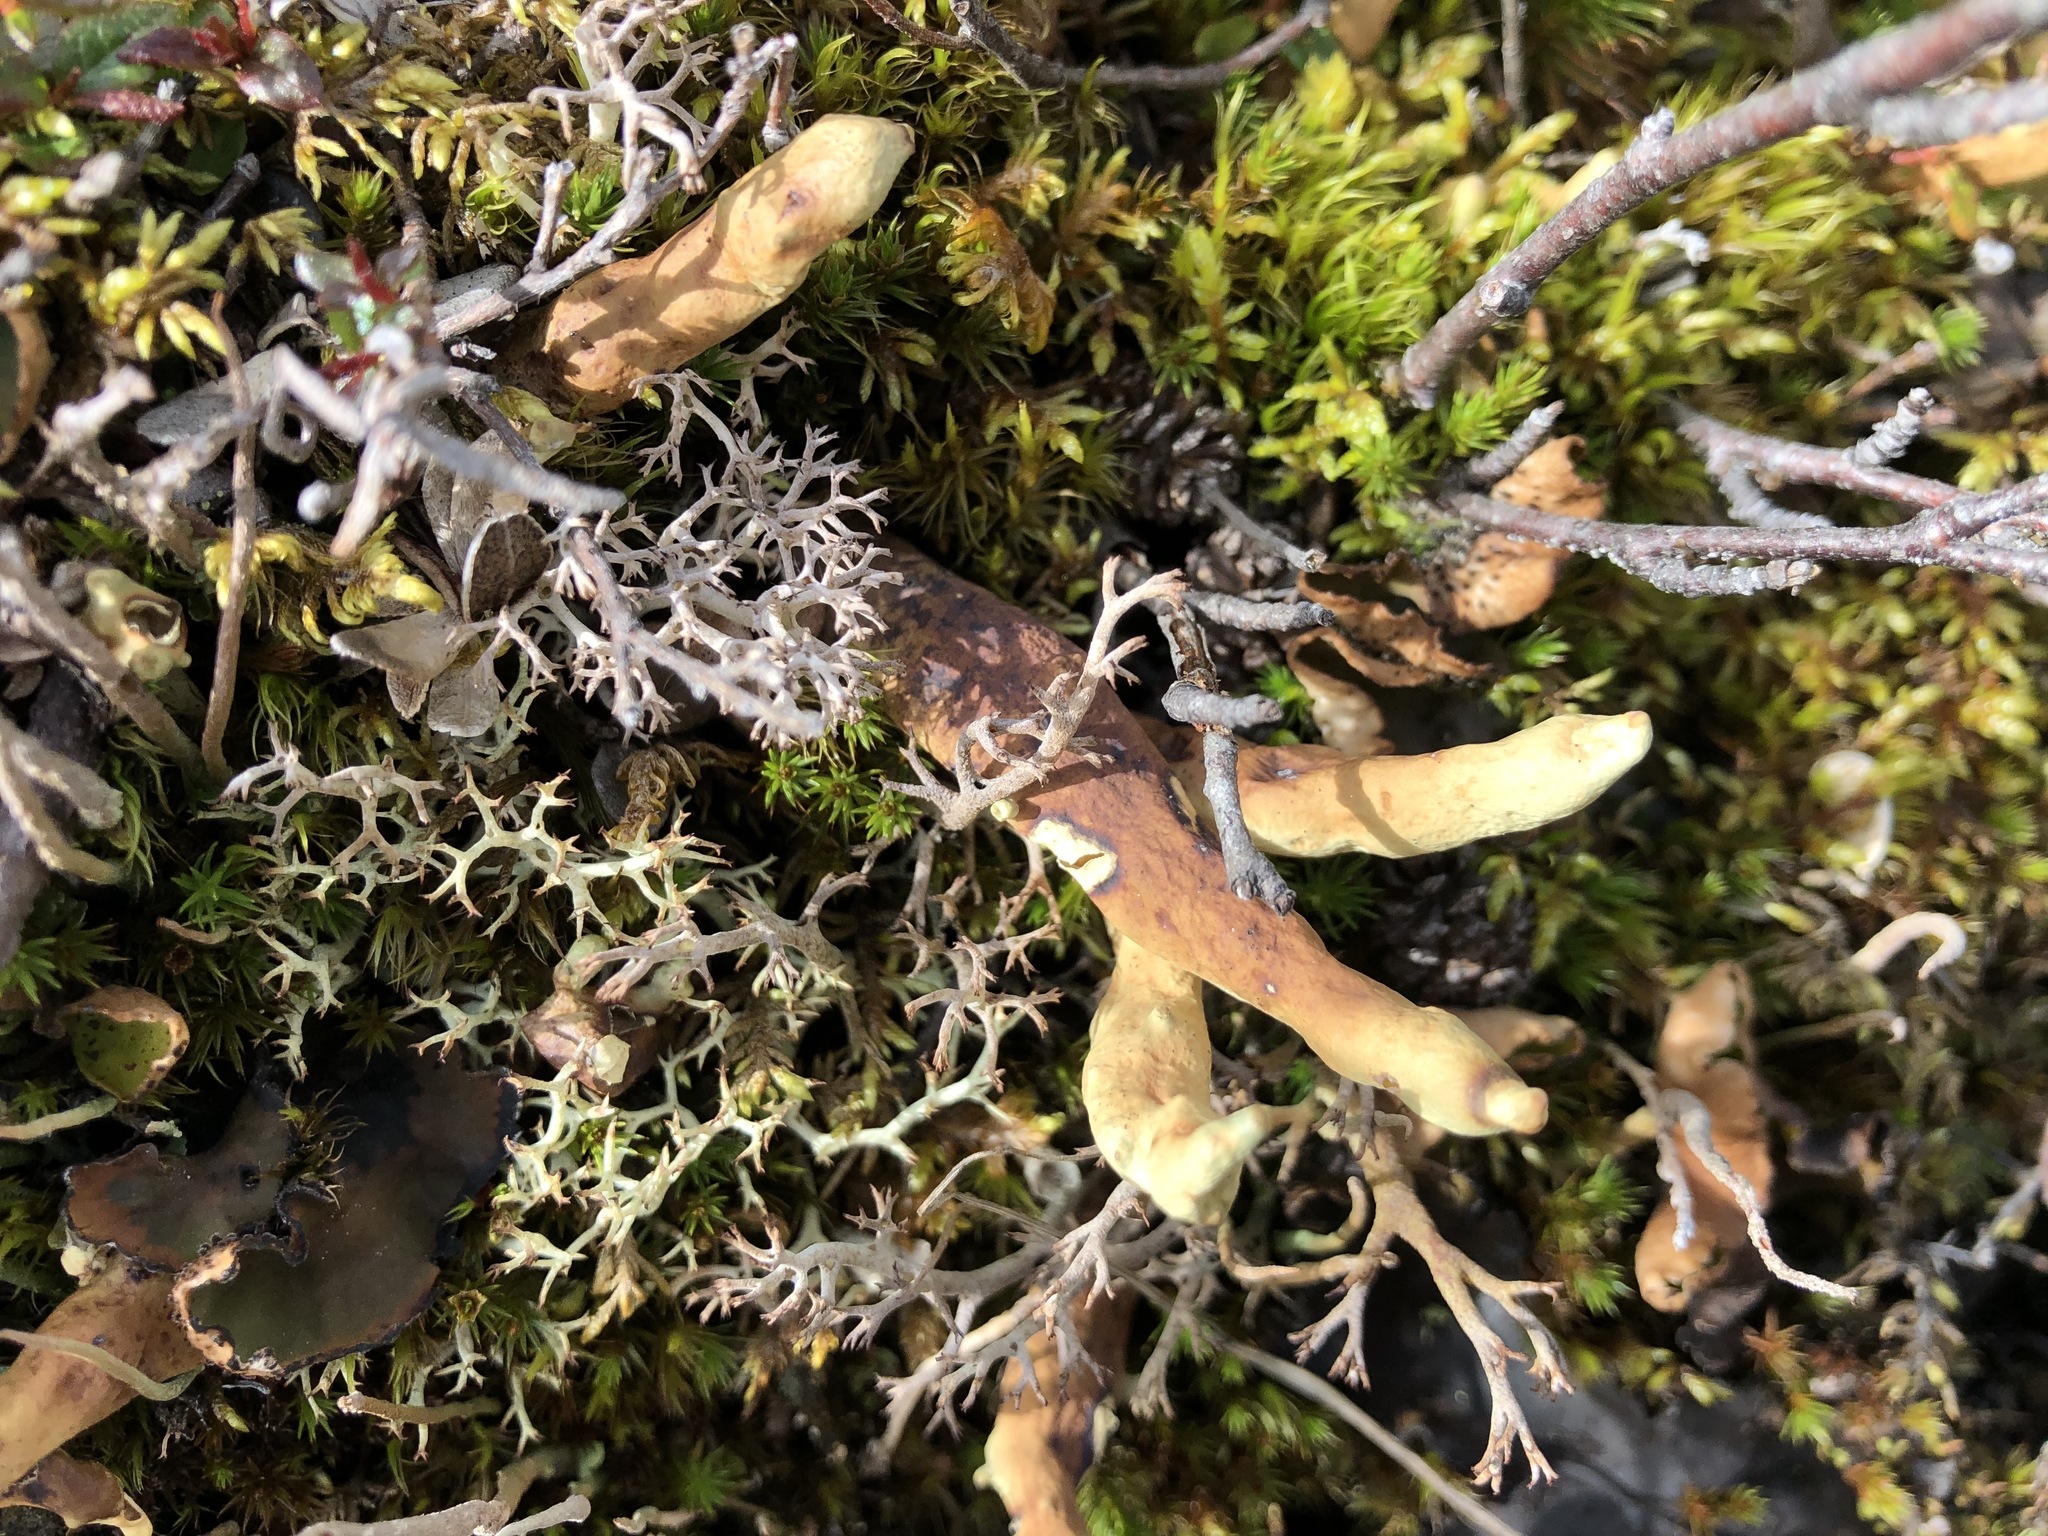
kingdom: Fungi
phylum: Ascomycota
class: Lecanoromycetes
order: Lecanorales
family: Parmeliaceae
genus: Dactylina
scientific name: Dactylina arctica
